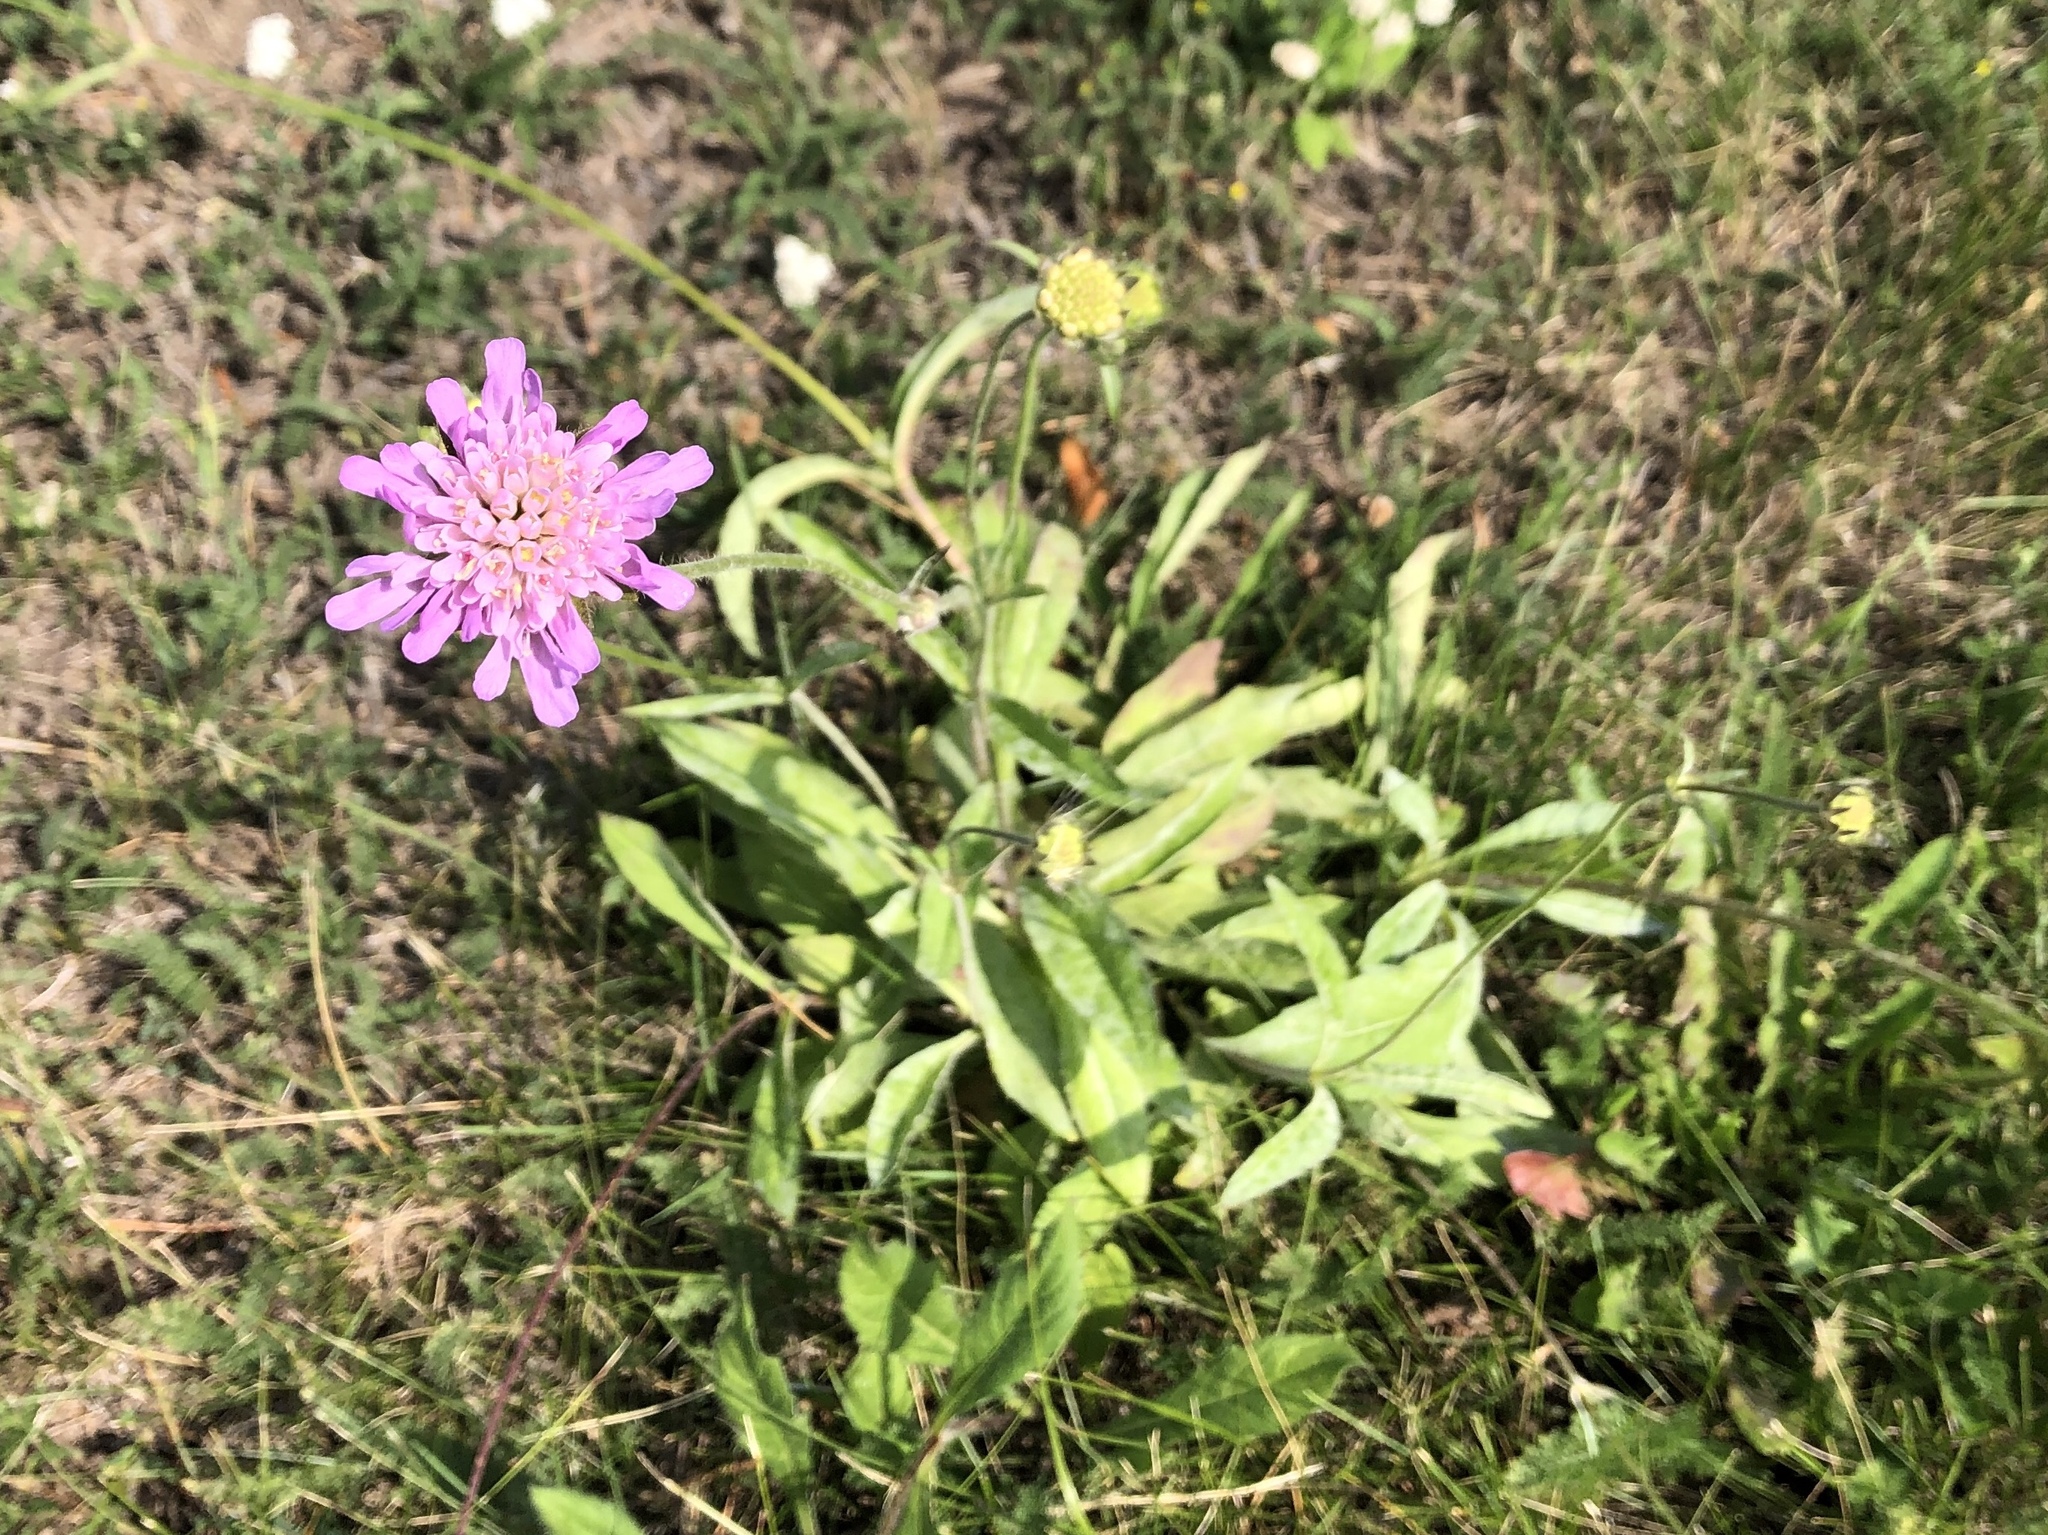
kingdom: Plantae
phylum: Tracheophyta
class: Magnoliopsida
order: Dipsacales
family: Caprifoliaceae
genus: Knautia
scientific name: Knautia arvensis
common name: Field scabiosa
